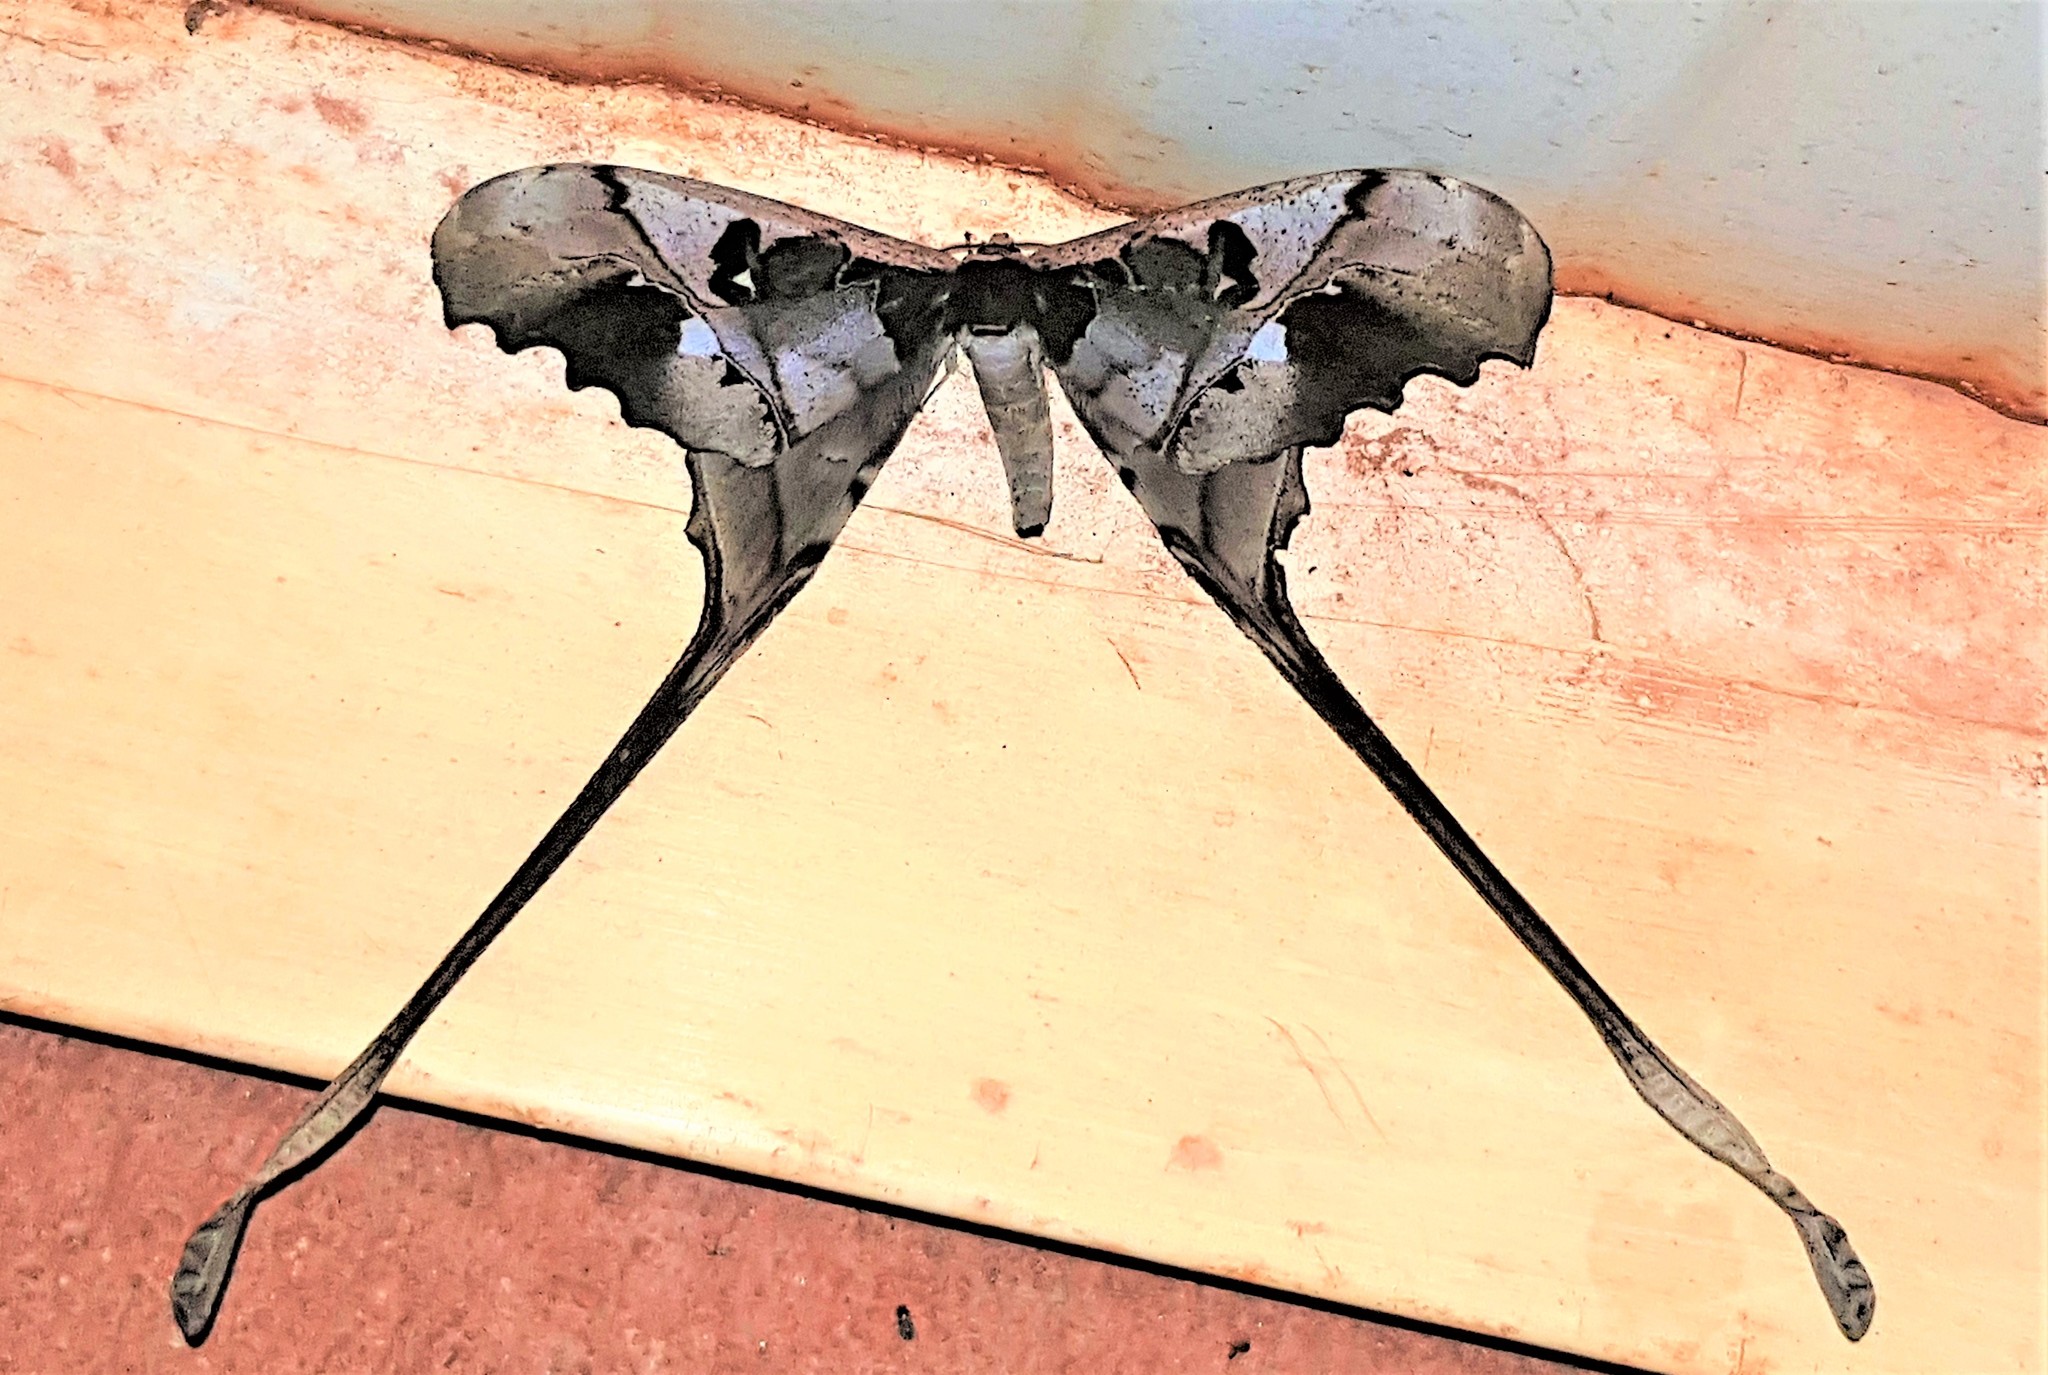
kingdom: Animalia
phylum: Arthropoda
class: Insecta
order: Lepidoptera
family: Saturniidae
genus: Copiopteryx
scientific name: Copiopteryx jehovah
